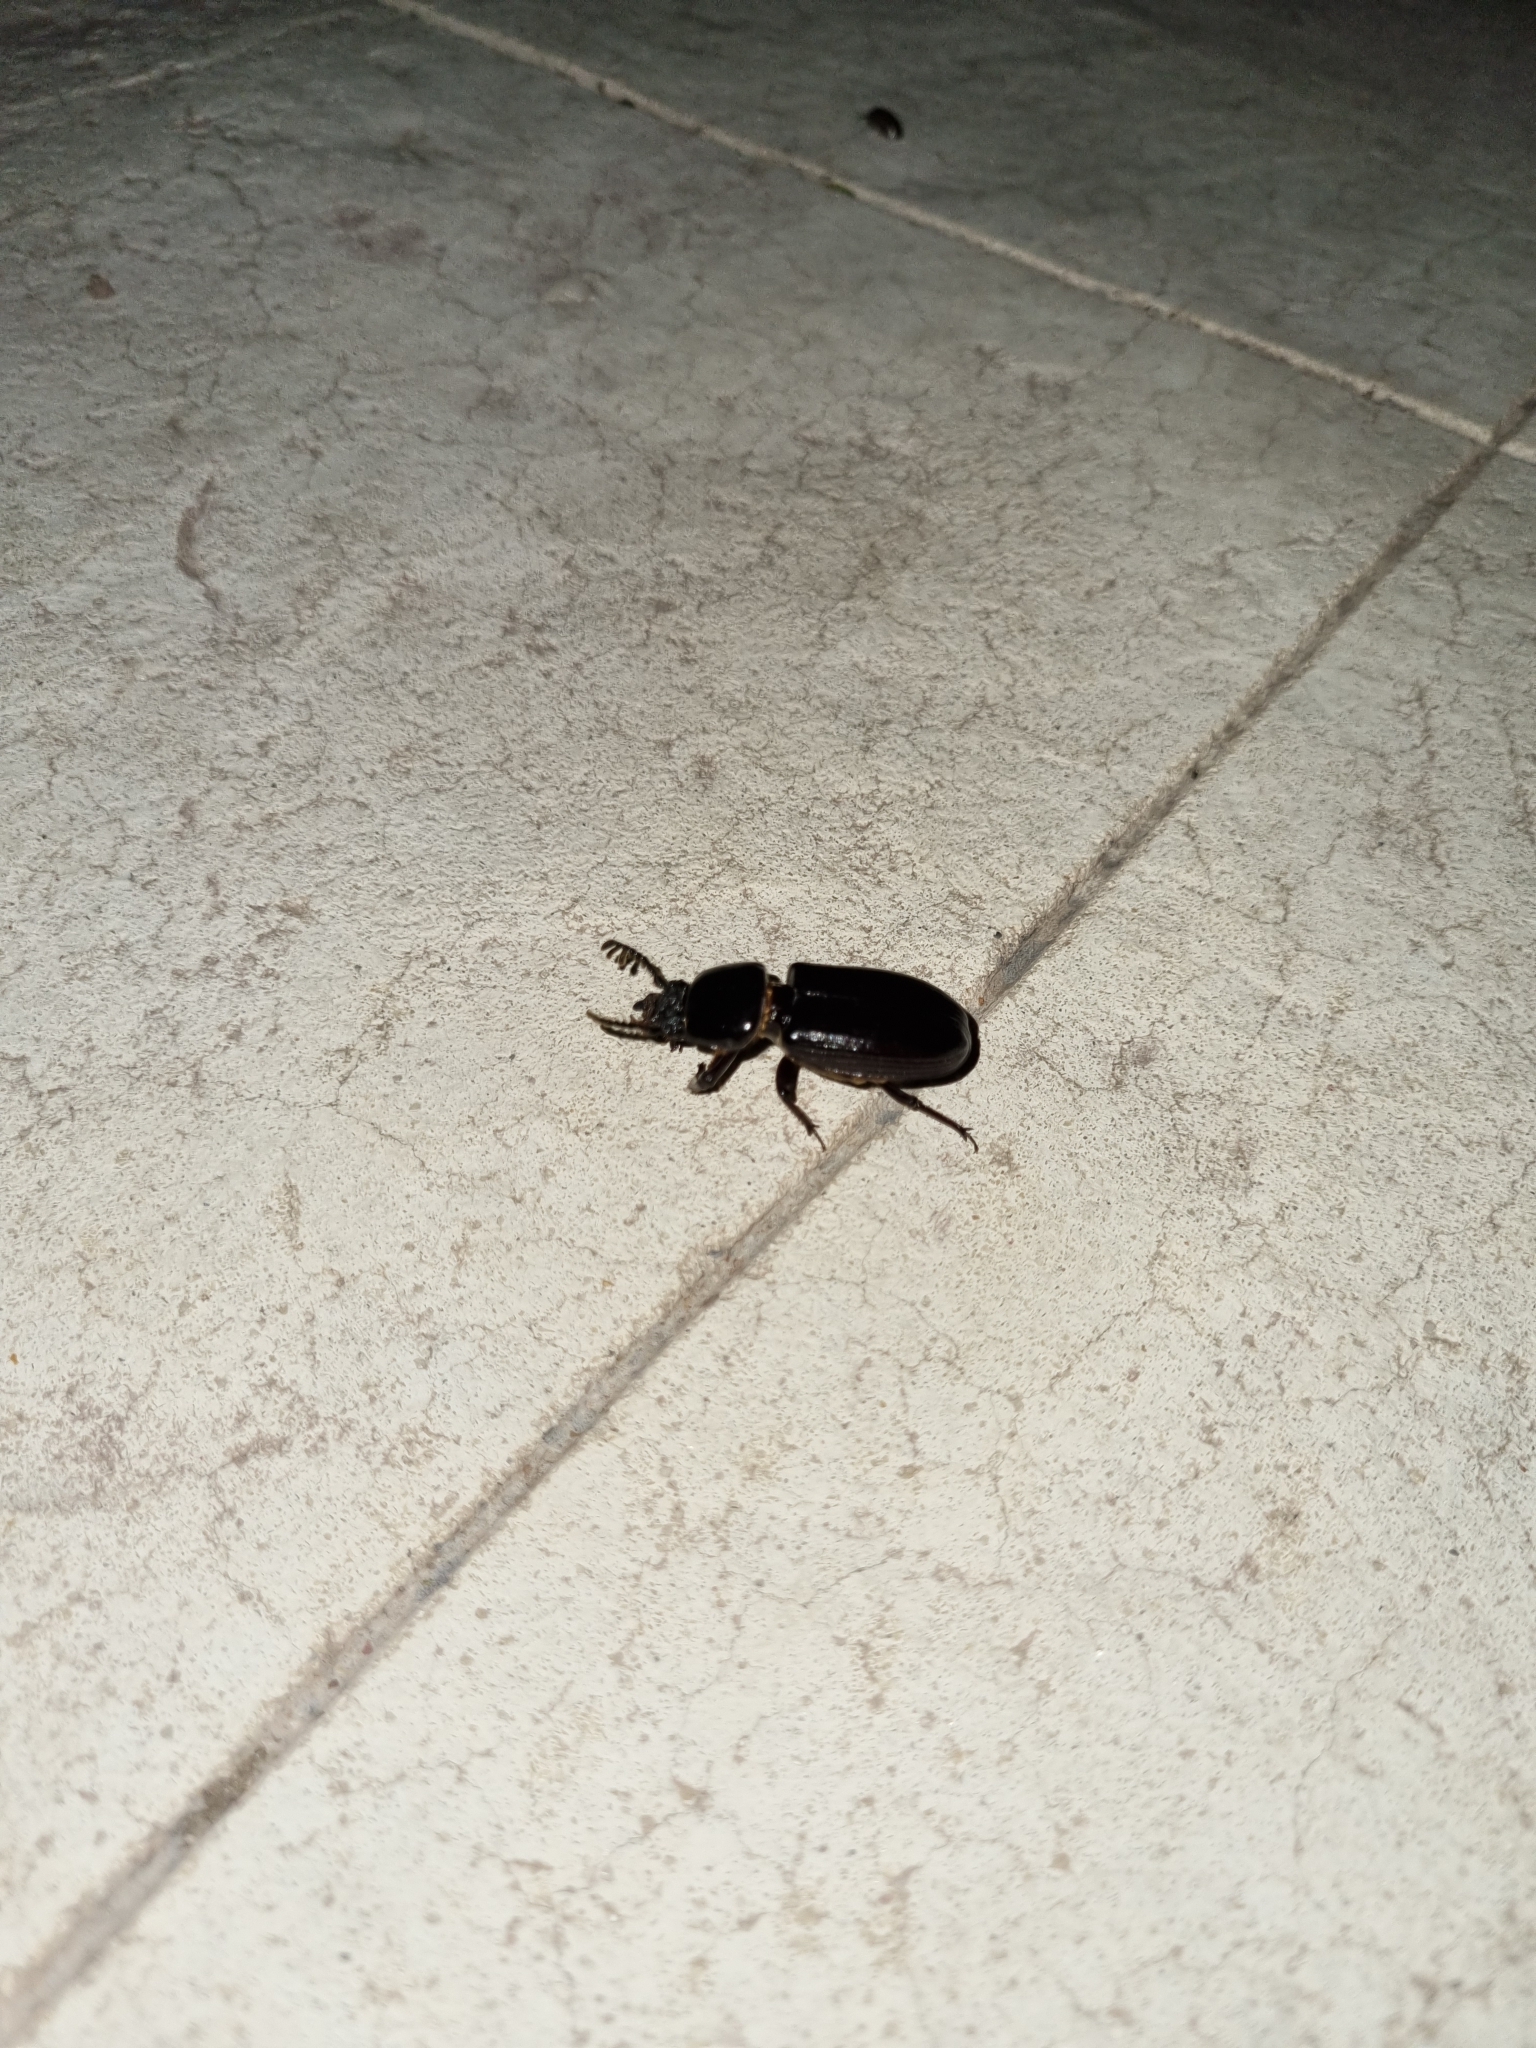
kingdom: Animalia
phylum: Arthropoda
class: Insecta
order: Coleoptera
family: Passalidae
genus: Ptichopus
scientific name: Ptichopus angulatus
